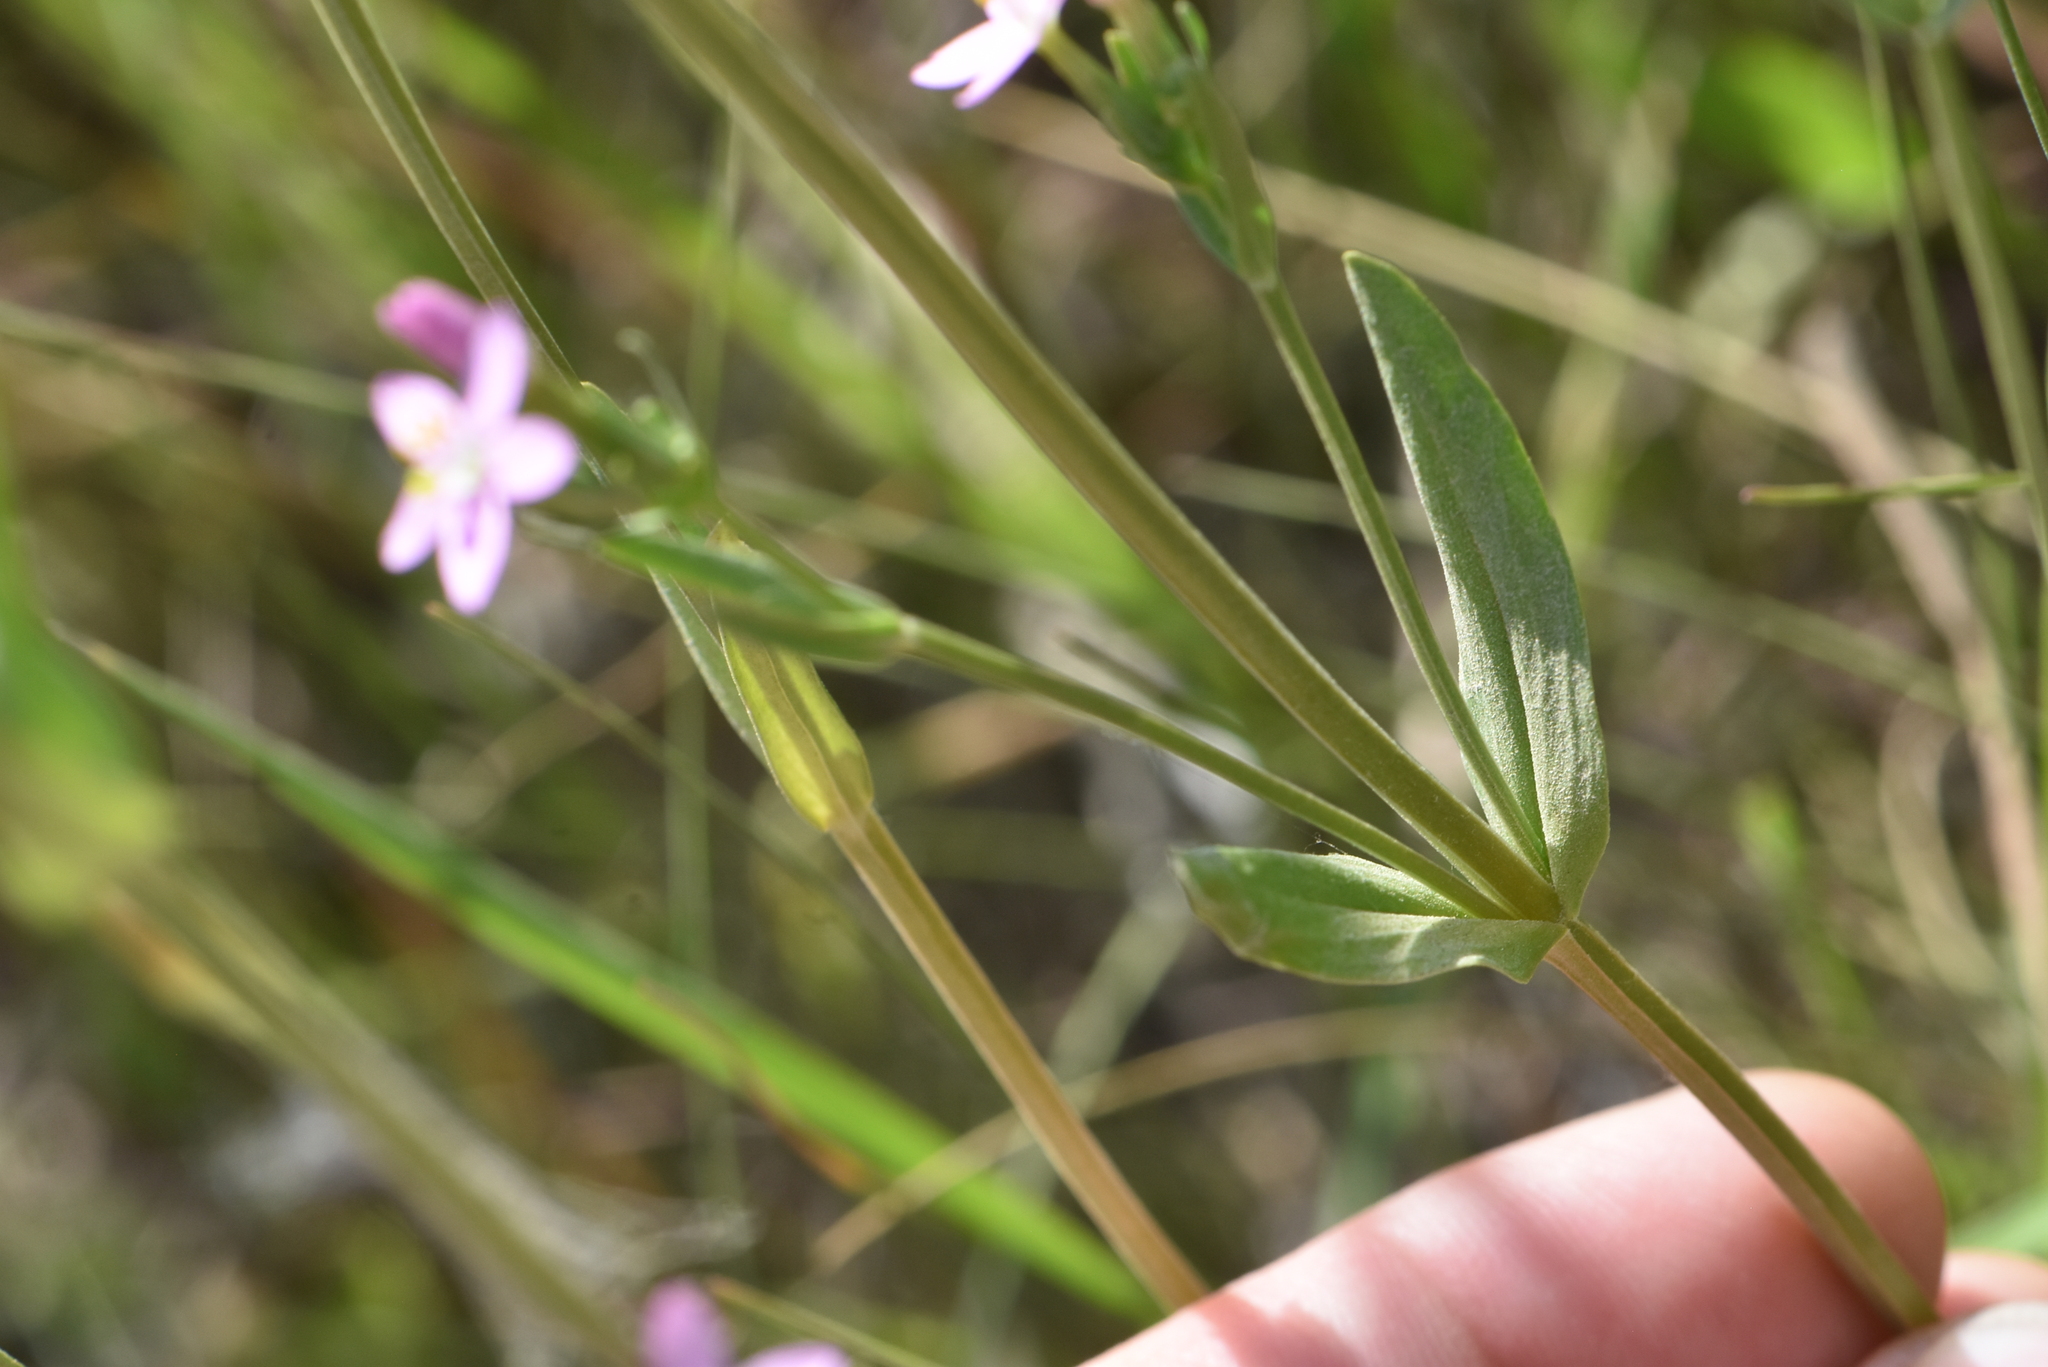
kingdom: Plantae
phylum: Tracheophyta
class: Magnoliopsida
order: Gentianales
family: Gentianaceae
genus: Centaurium
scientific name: Centaurium erythraea
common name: Common centaury
